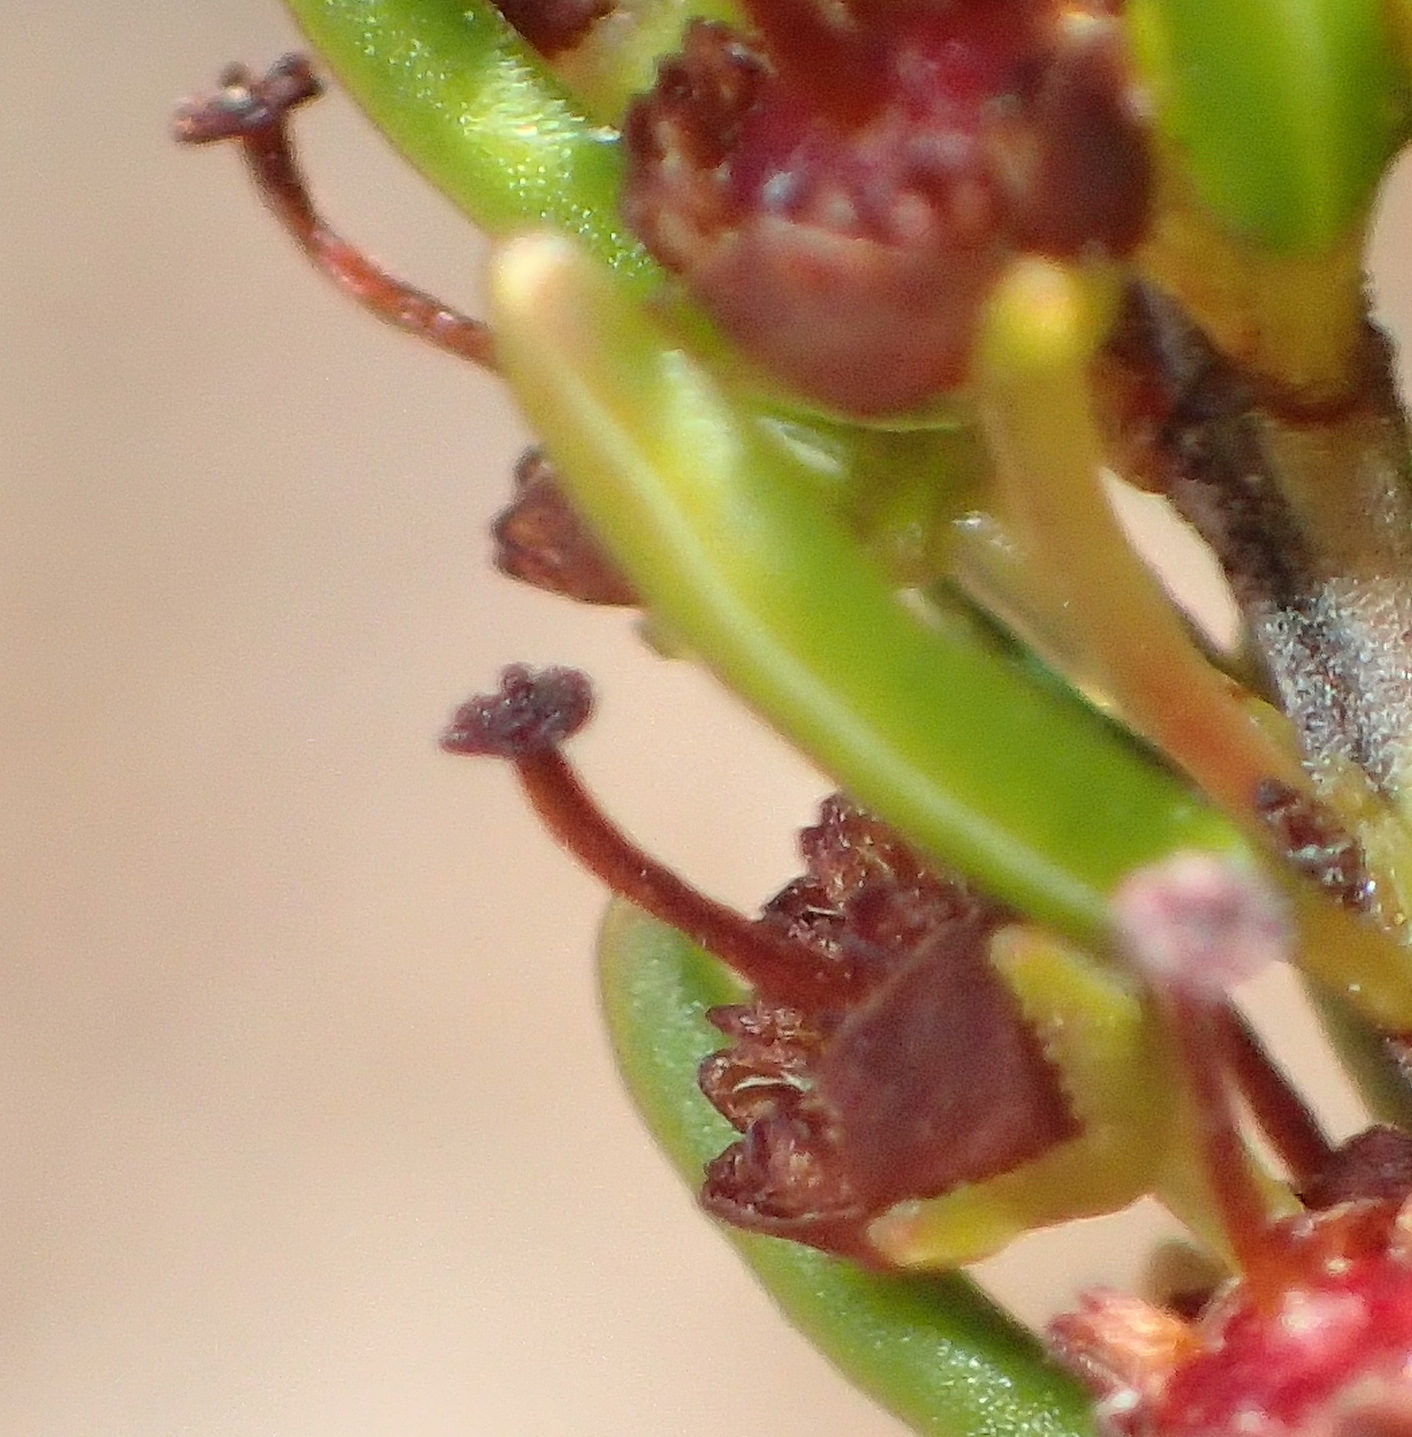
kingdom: Plantae
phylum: Tracheophyta
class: Magnoliopsida
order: Ericales
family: Ericaceae
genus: Erica
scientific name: Erica coarctata
